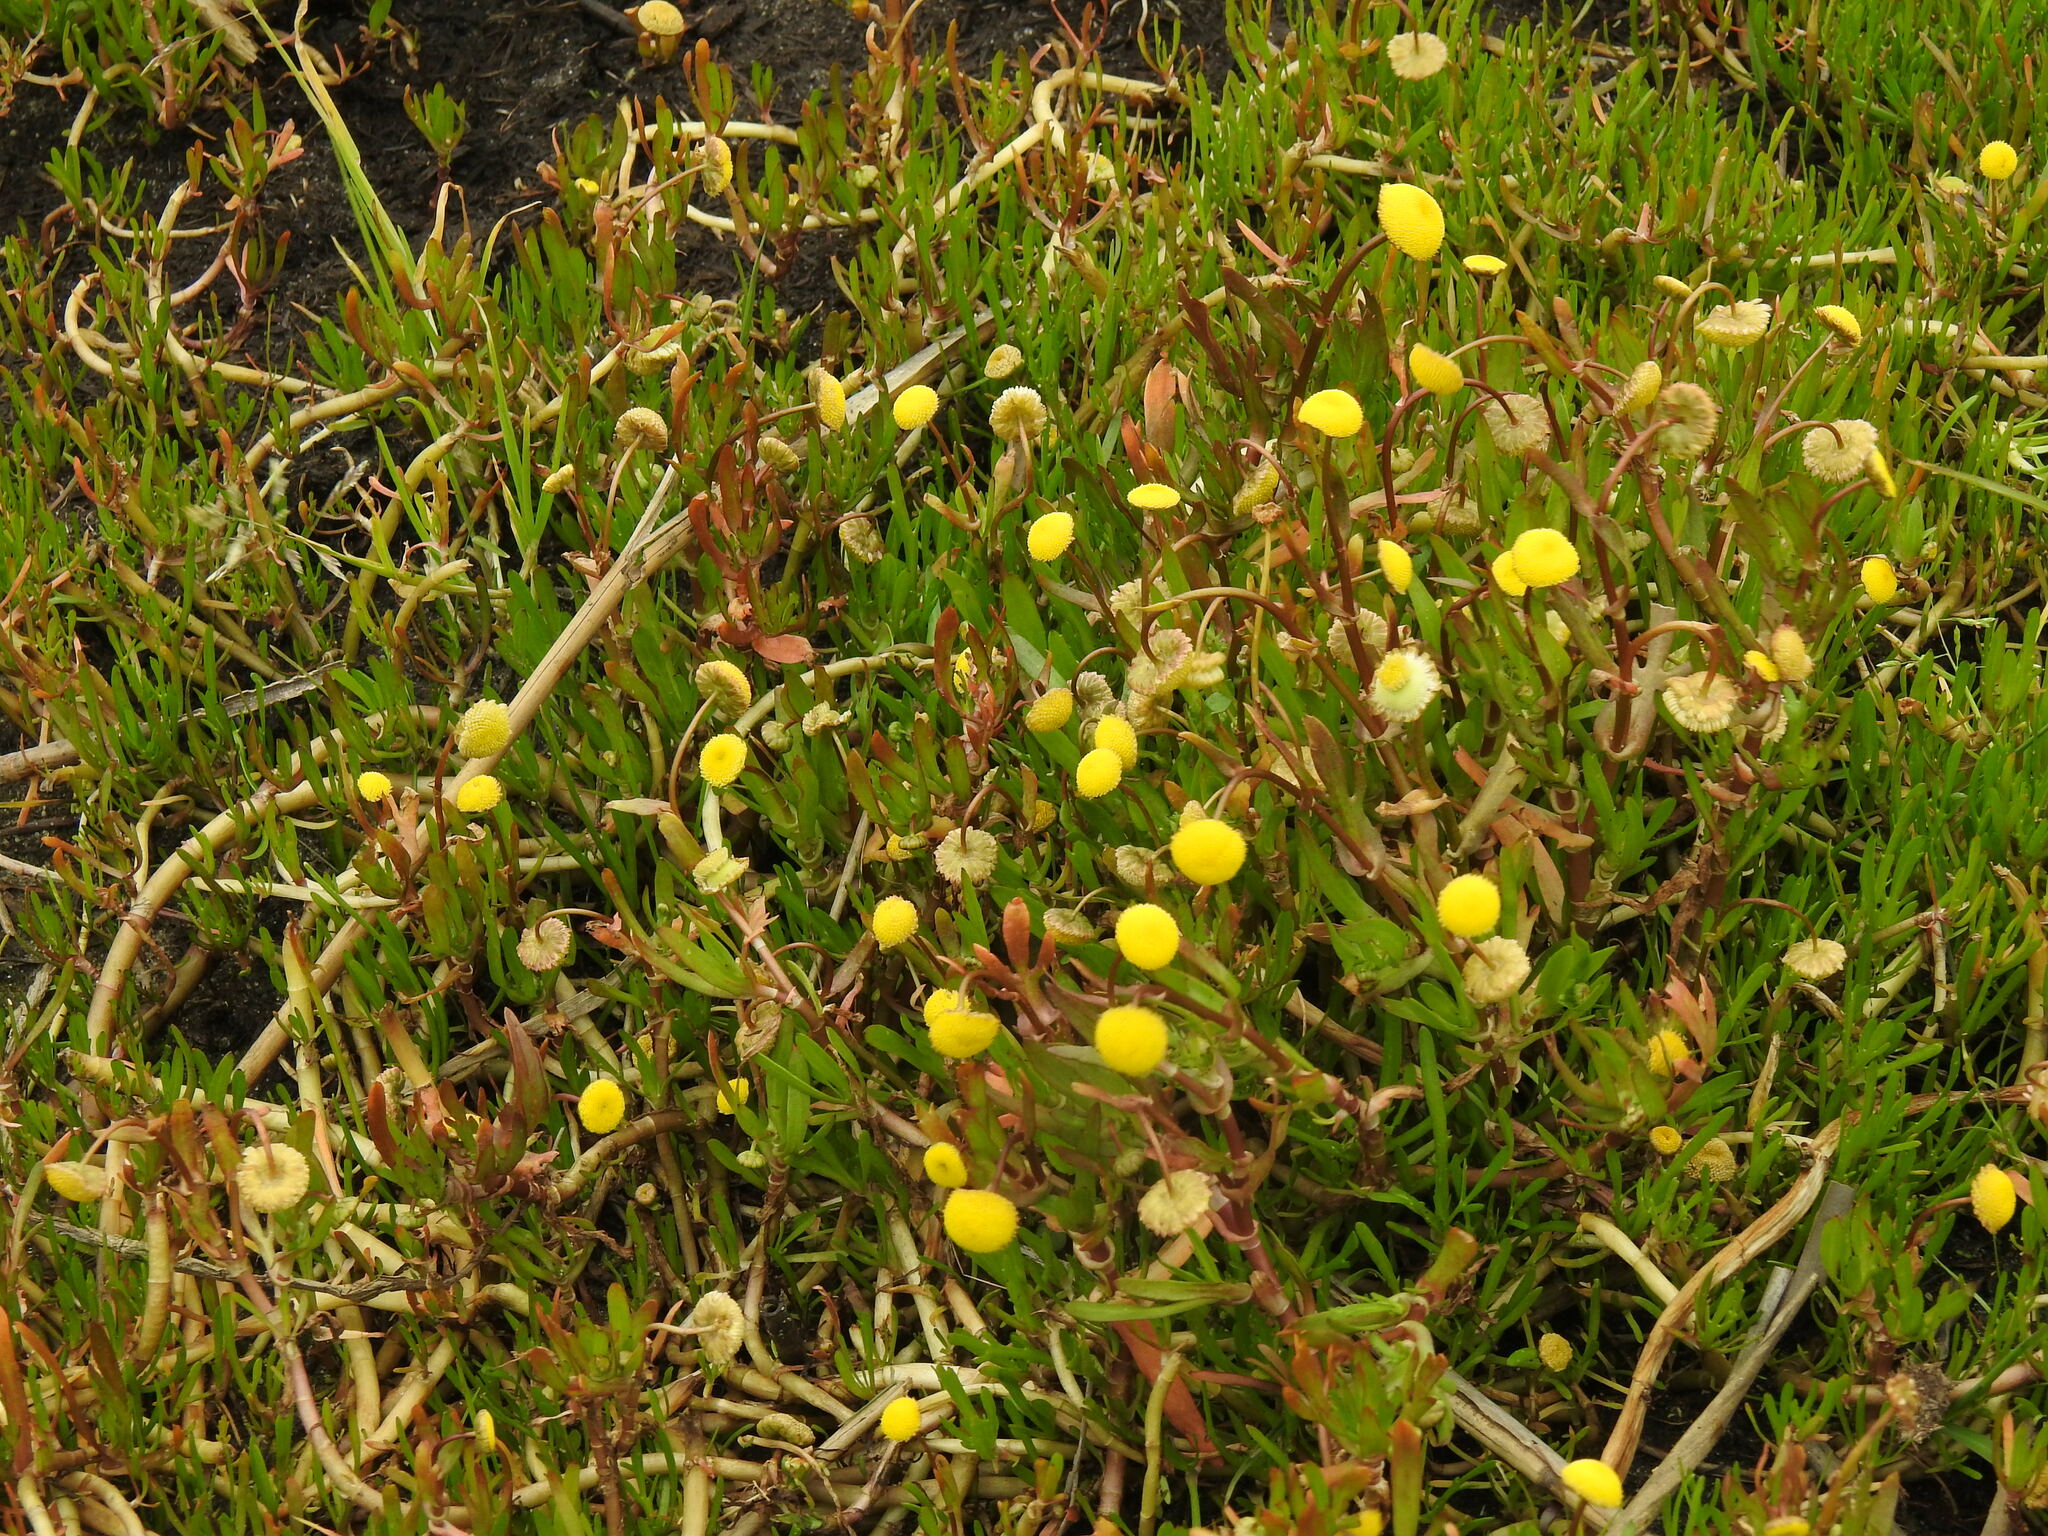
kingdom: Plantae
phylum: Tracheophyta
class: Magnoliopsida
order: Asterales
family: Asteraceae
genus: Cotula
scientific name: Cotula coronopifolia
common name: Buttonweed
